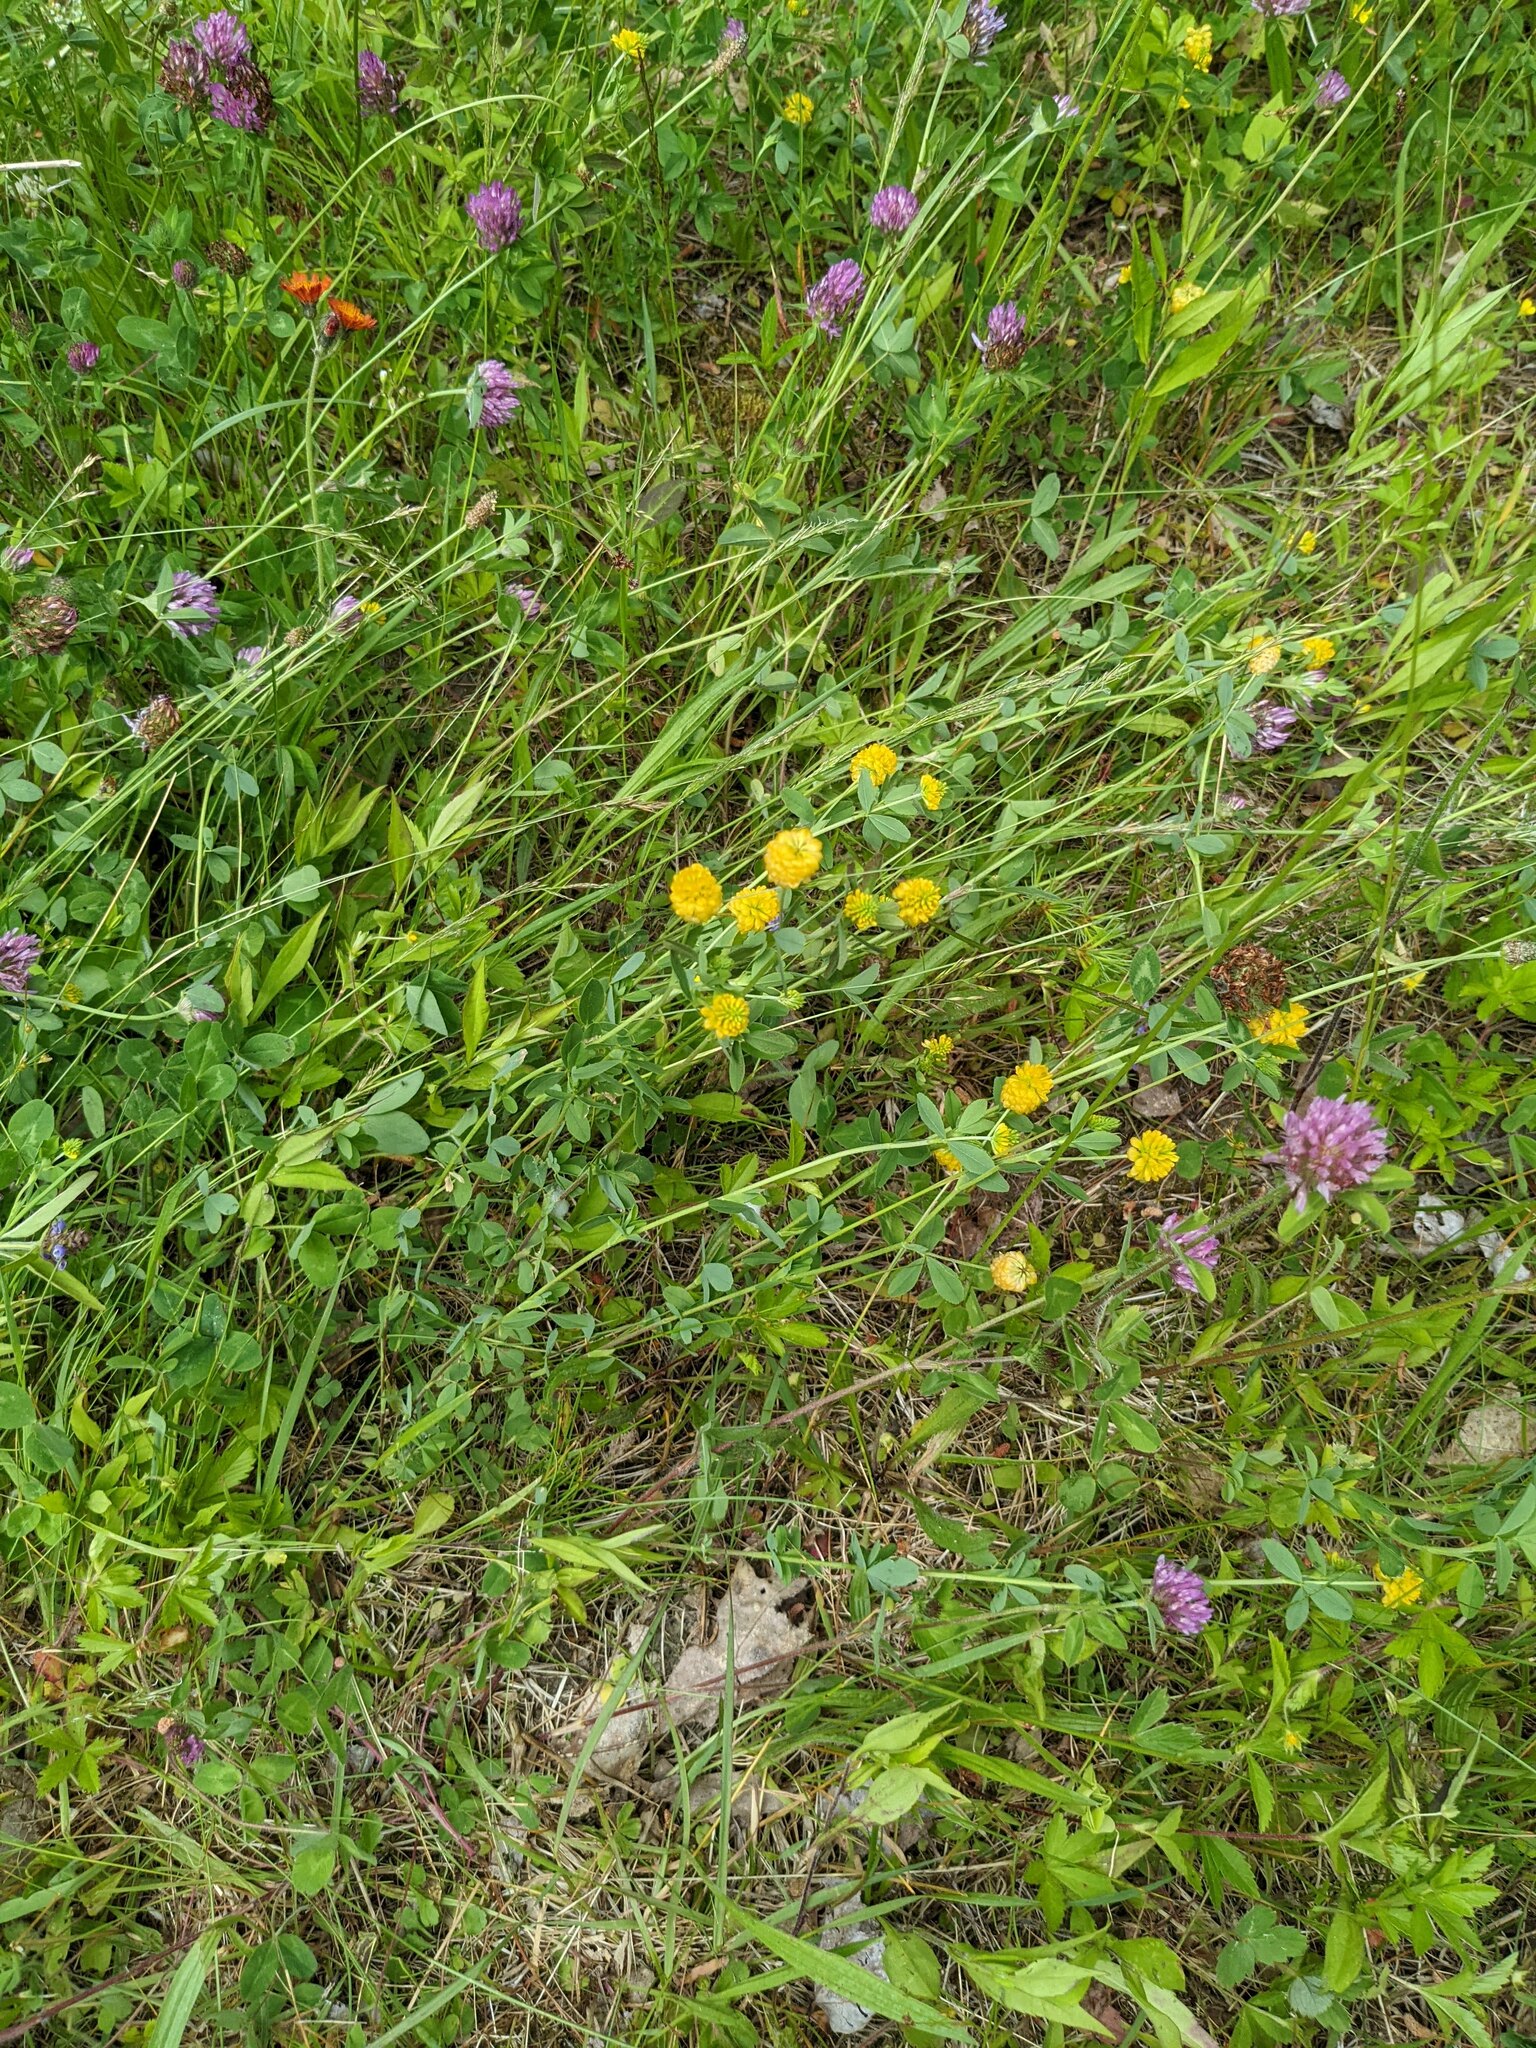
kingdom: Plantae
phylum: Tracheophyta
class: Magnoliopsida
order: Fabales
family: Fabaceae
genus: Trifolium
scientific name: Trifolium aureum
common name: Golden clover
